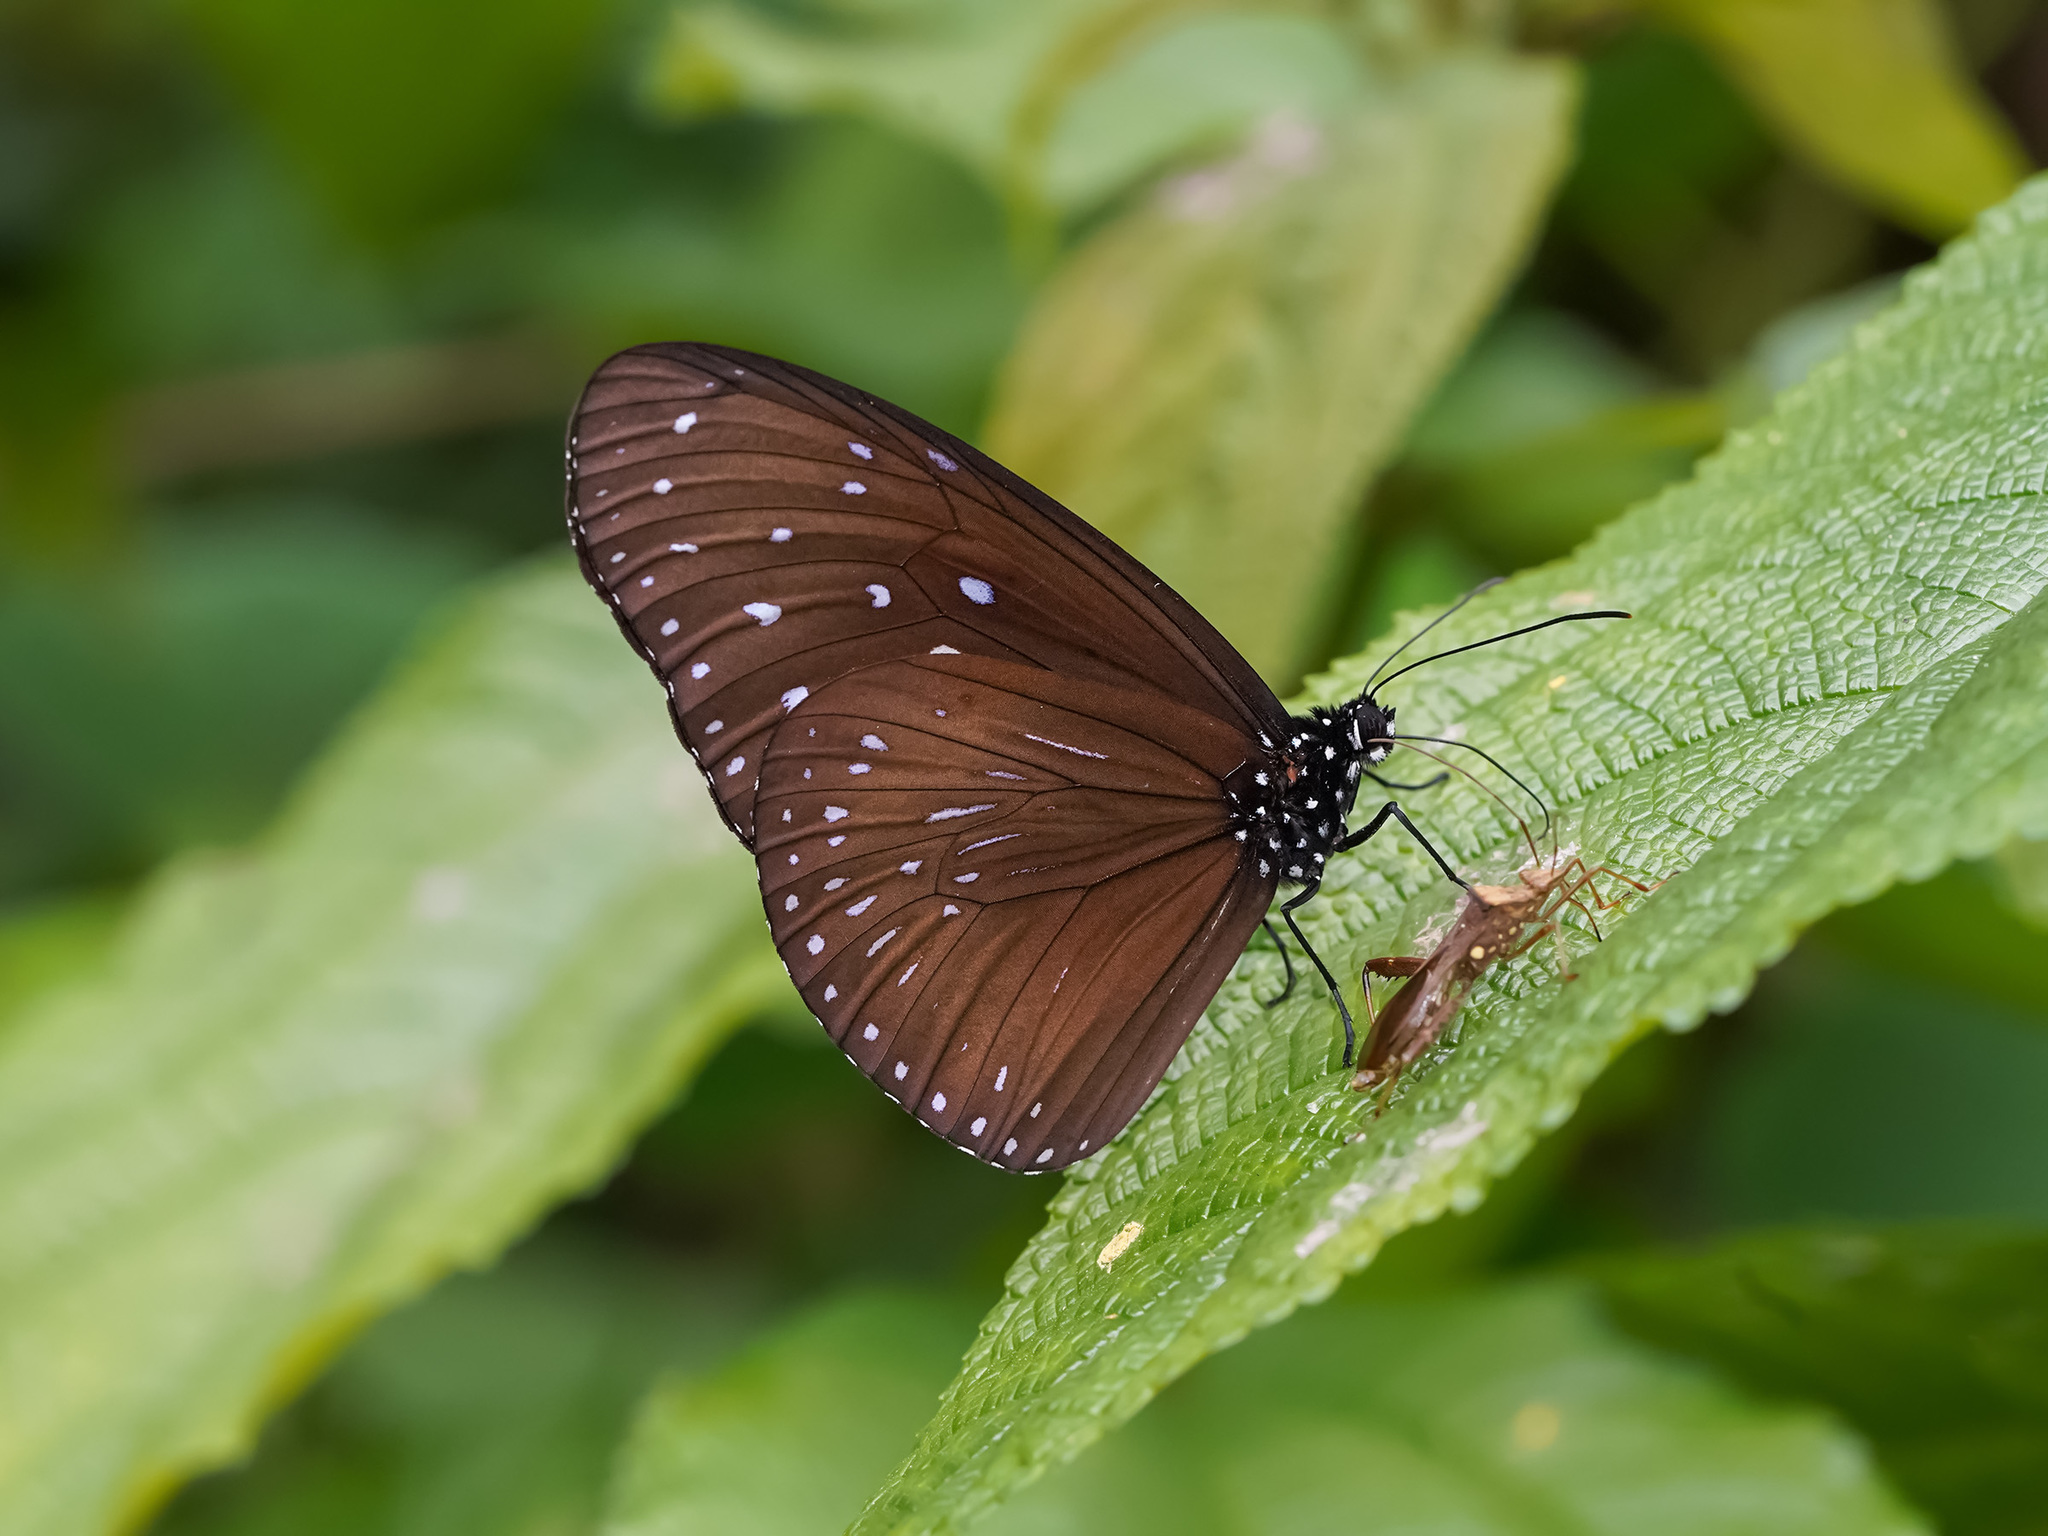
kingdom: Animalia
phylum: Arthropoda
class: Insecta
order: Lepidoptera
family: Nymphalidae
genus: Euploea
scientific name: Euploea mulciber
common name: Striped blue crow butterfly
